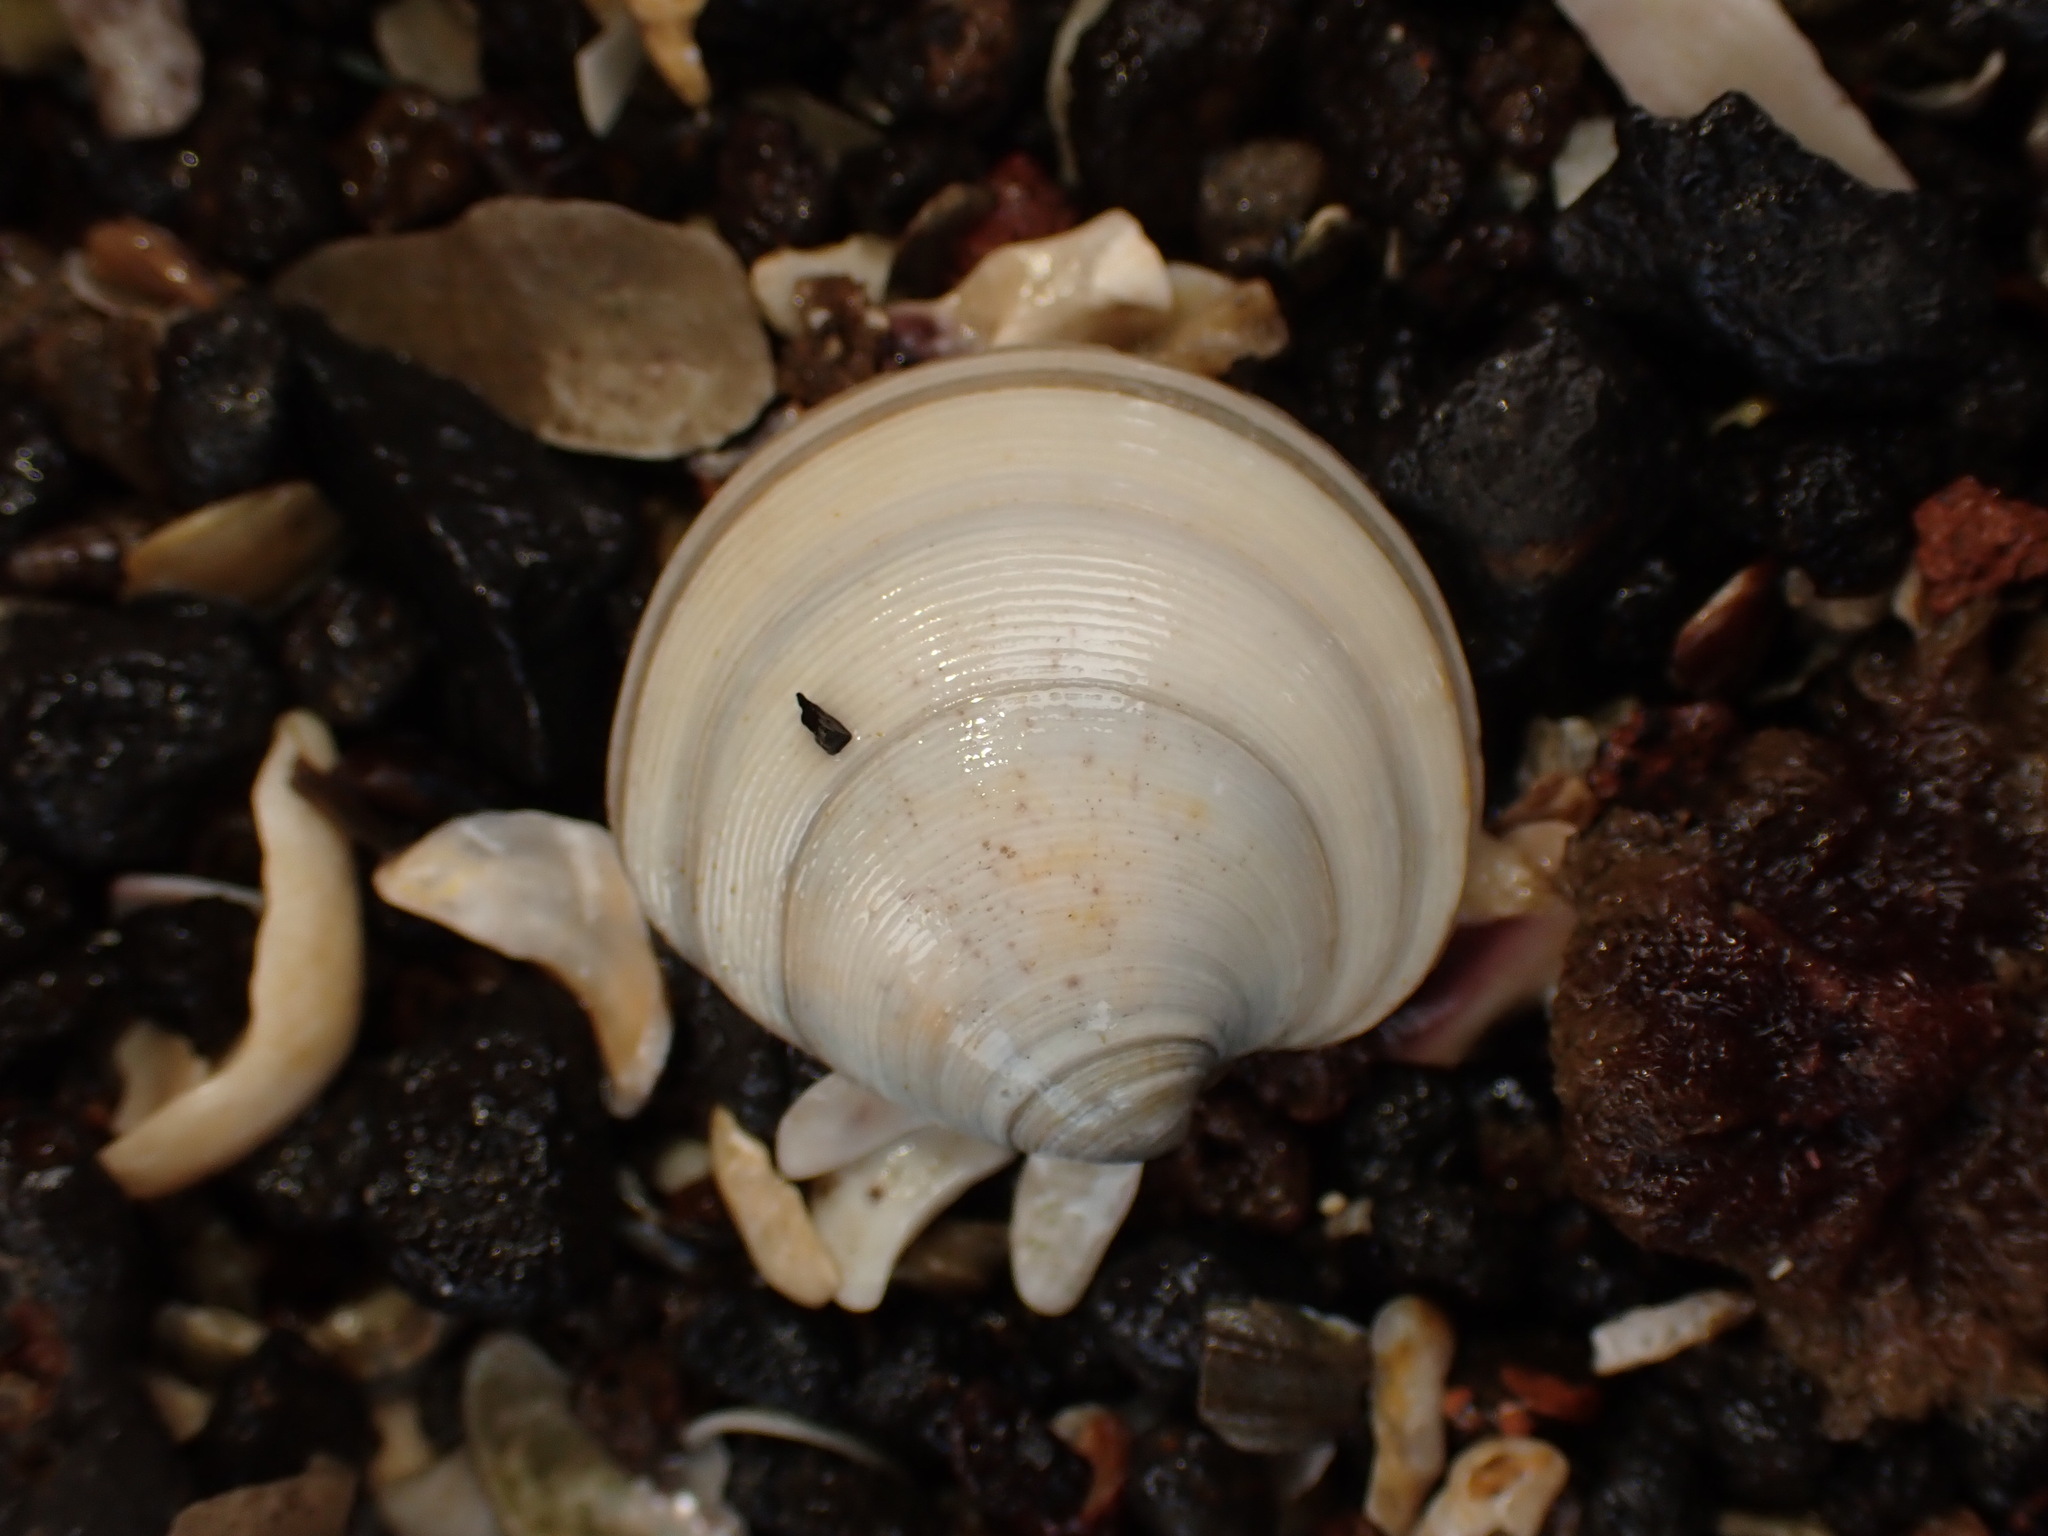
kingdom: Animalia
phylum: Mollusca
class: Bivalvia
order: Venerida
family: Veneridae
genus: Dosinia
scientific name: Dosinia subrosea
